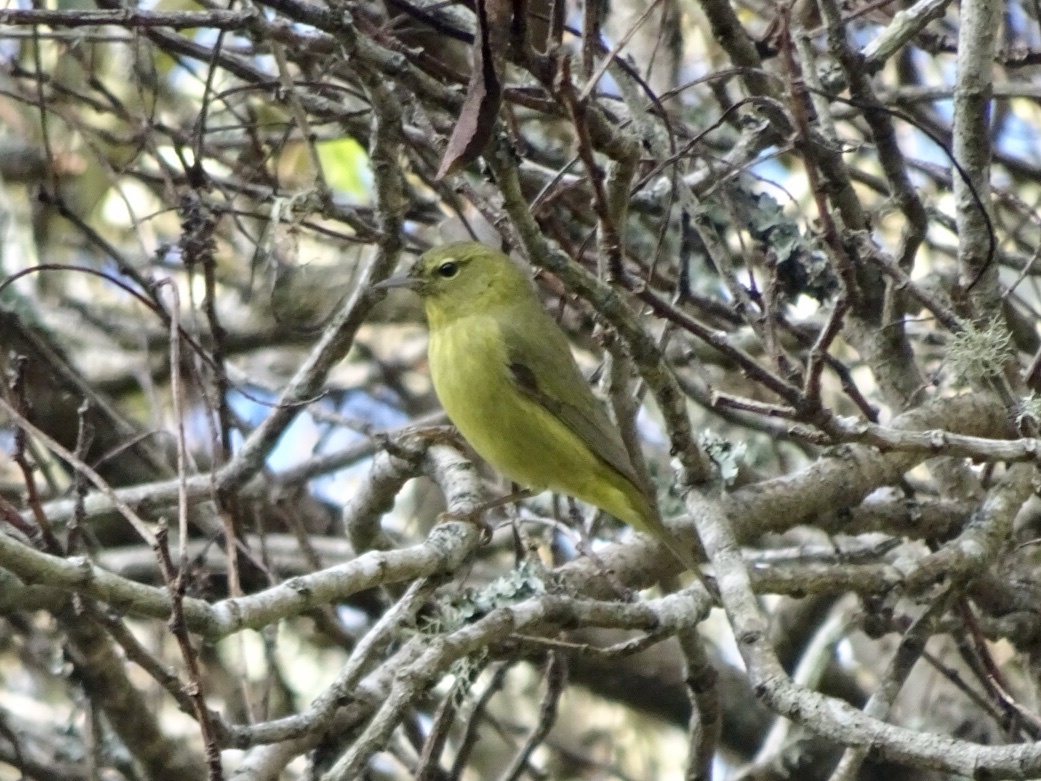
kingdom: Animalia
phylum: Chordata
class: Aves
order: Passeriformes
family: Parulidae
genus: Leiothlypis
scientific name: Leiothlypis celata
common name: Orange-crowned warbler
